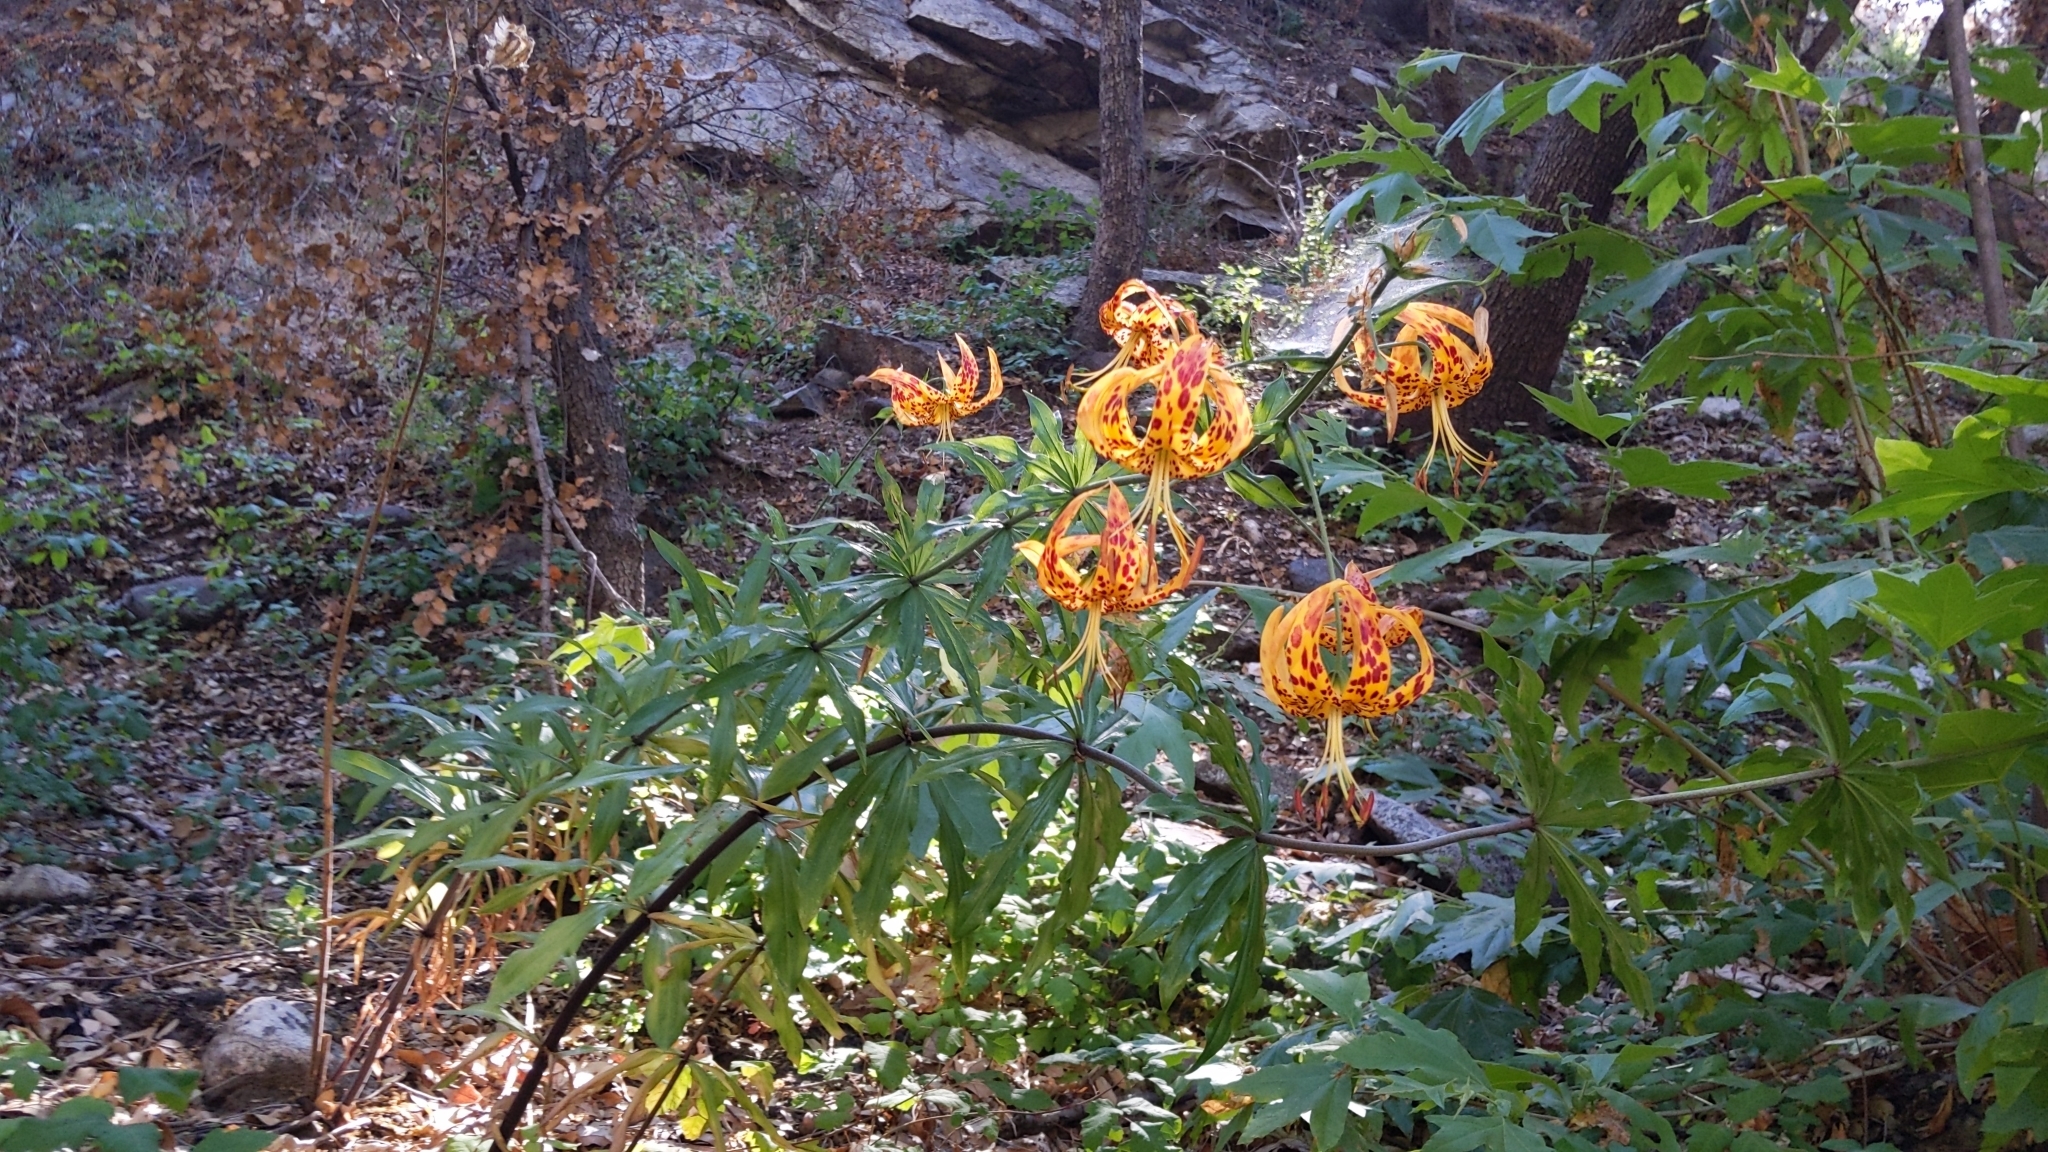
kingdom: Plantae
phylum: Tracheophyta
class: Liliopsida
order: Liliales
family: Liliaceae
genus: Lilium
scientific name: Lilium humboldtii
